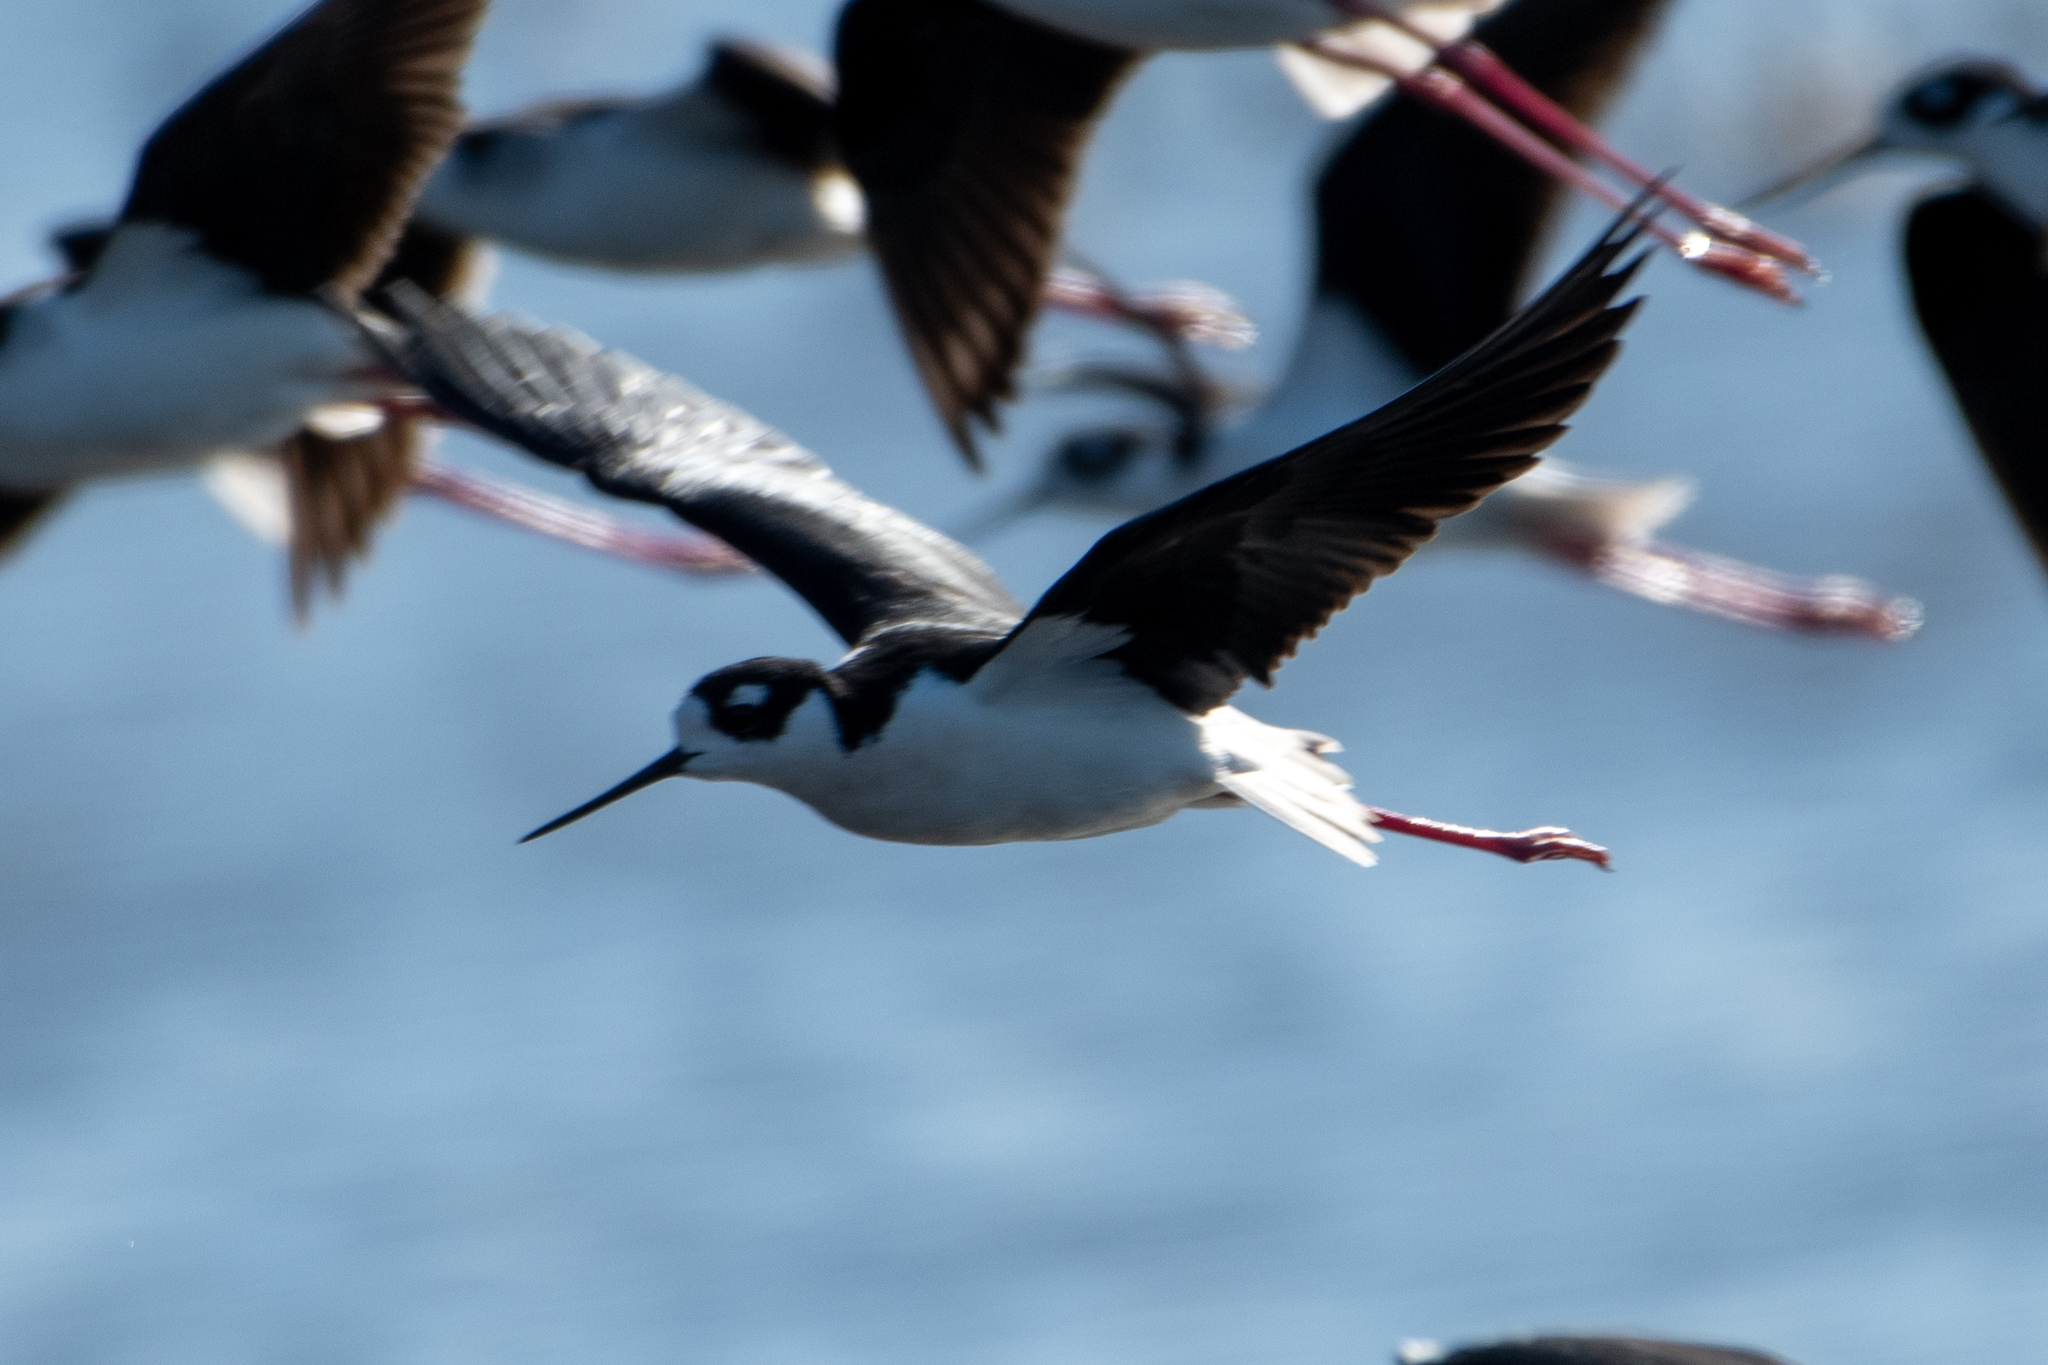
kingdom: Animalia
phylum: Chordata
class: Aves
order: Charadriiformes
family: Recurvirostridae
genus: Himantopus
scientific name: Himantopus mexicanus
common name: Black-necked stilt
